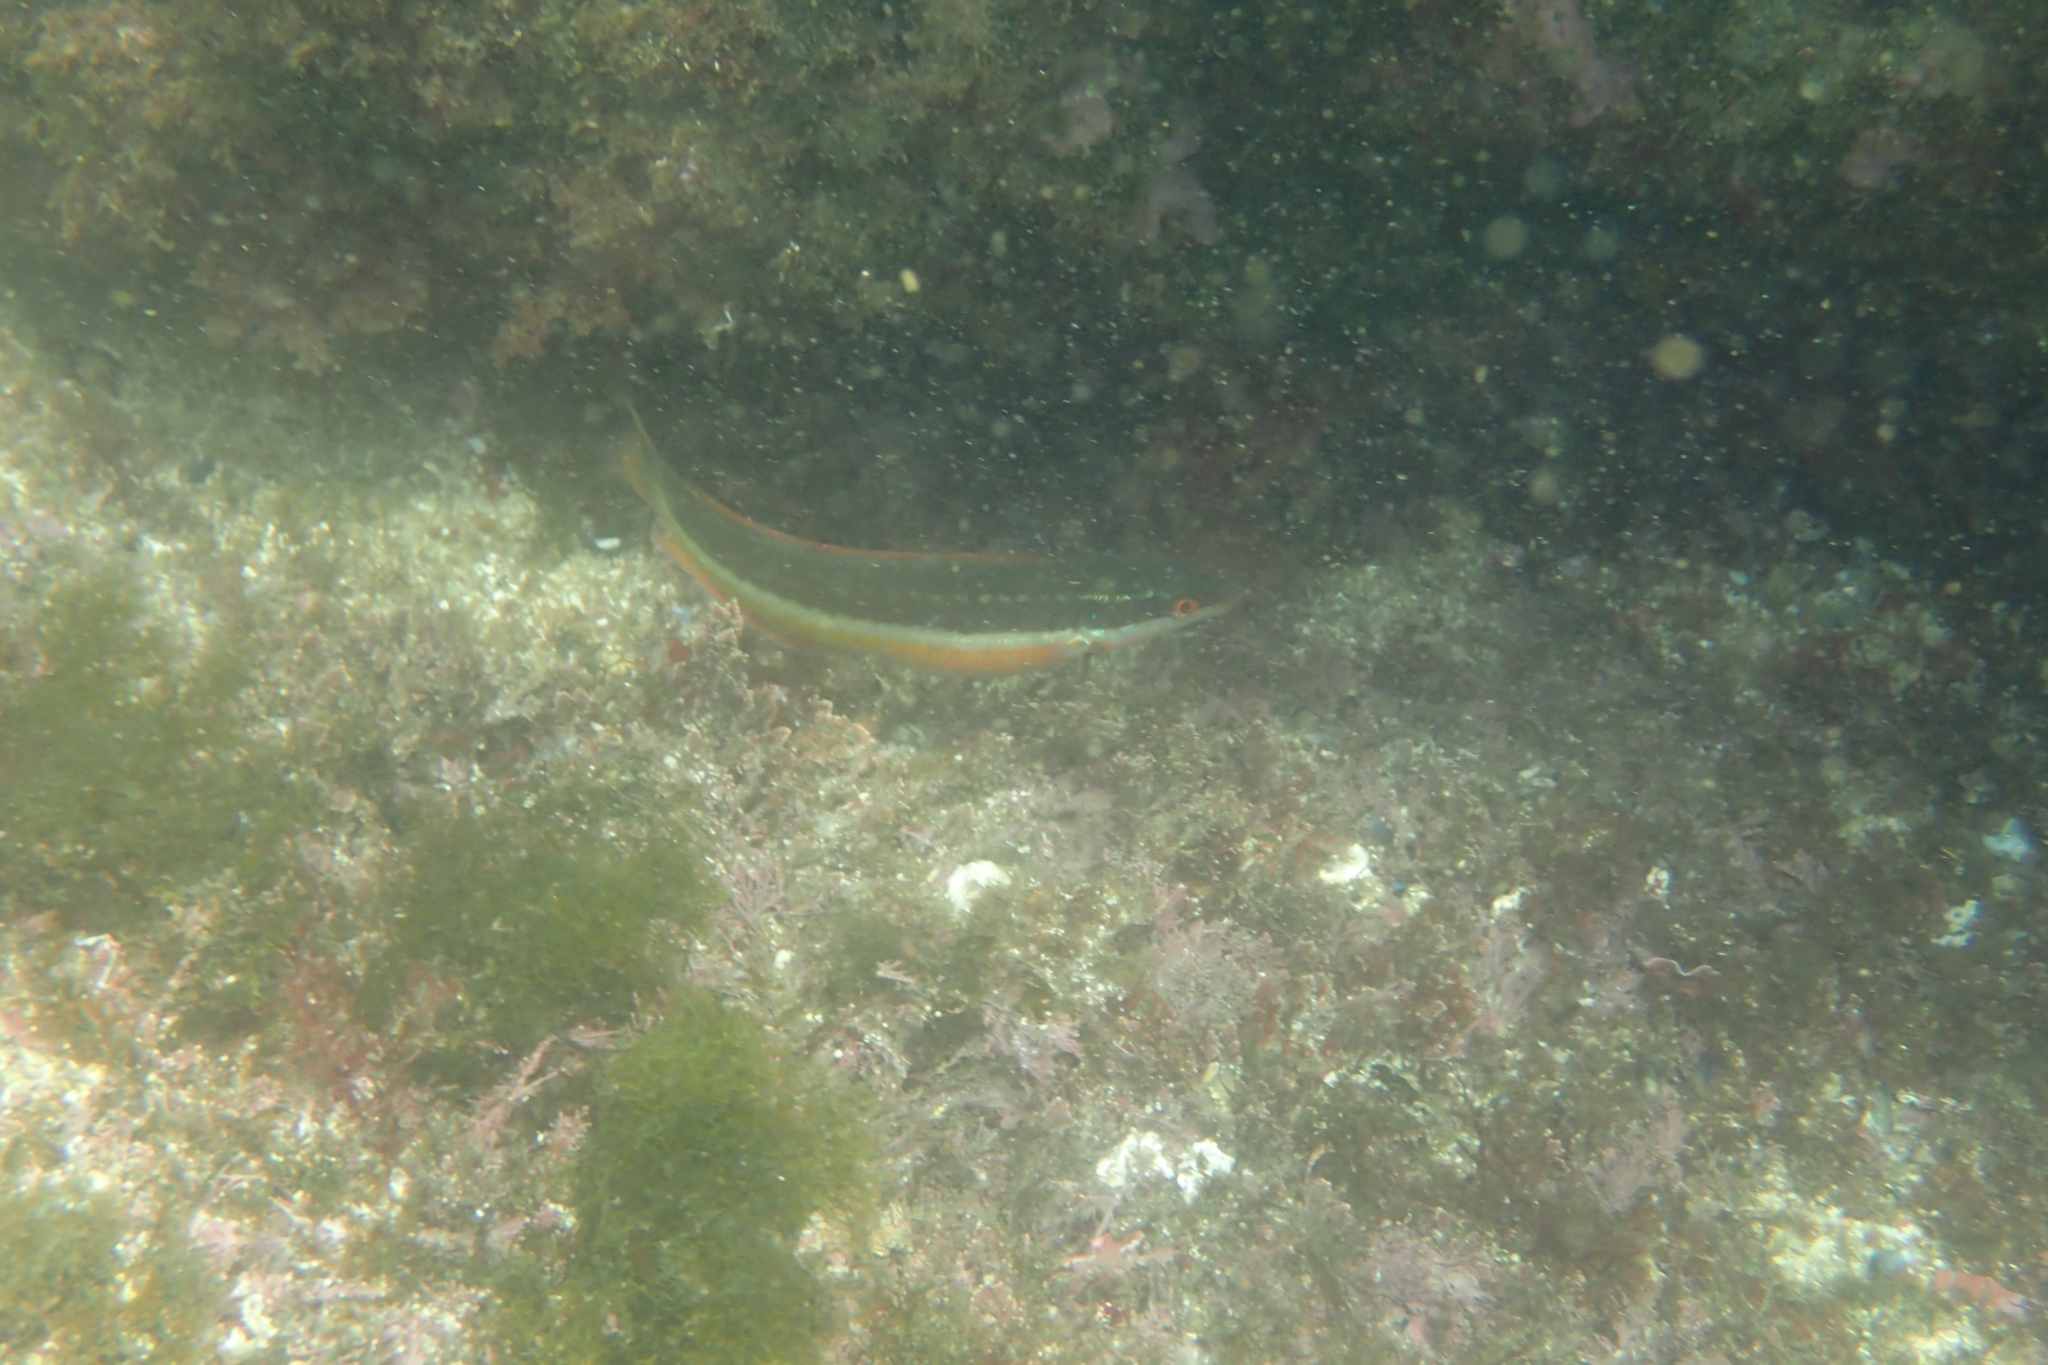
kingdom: Animalia
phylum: Chordata
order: Perciformes
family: Labridae
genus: Coris
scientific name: Coris julis
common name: Rainbow wrasse
